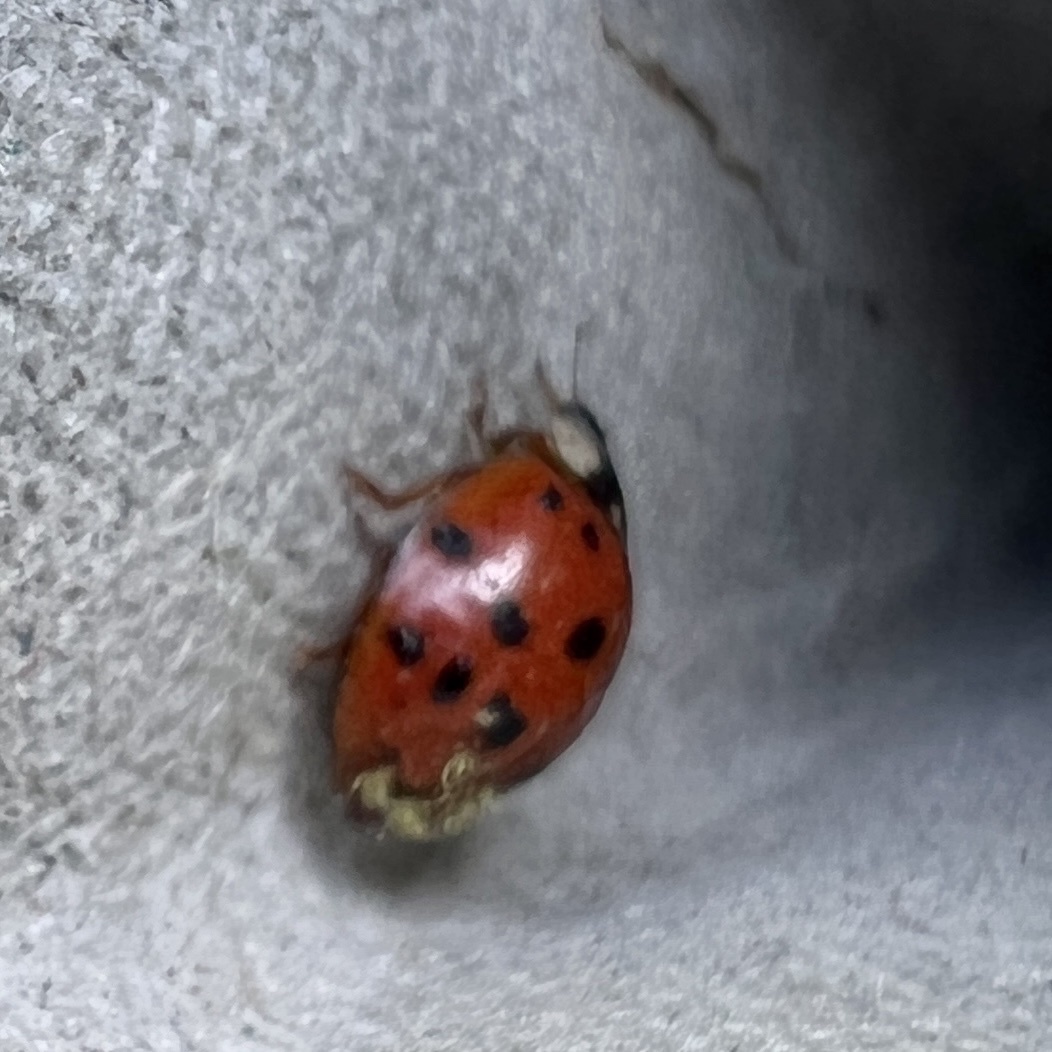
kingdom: Fungi
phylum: Ascomycota
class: Laboulbeniomycetes
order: Laboulbeniales
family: Laboulbeniaceae
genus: Hesperomyces
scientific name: Hesperomyces harmoniae
